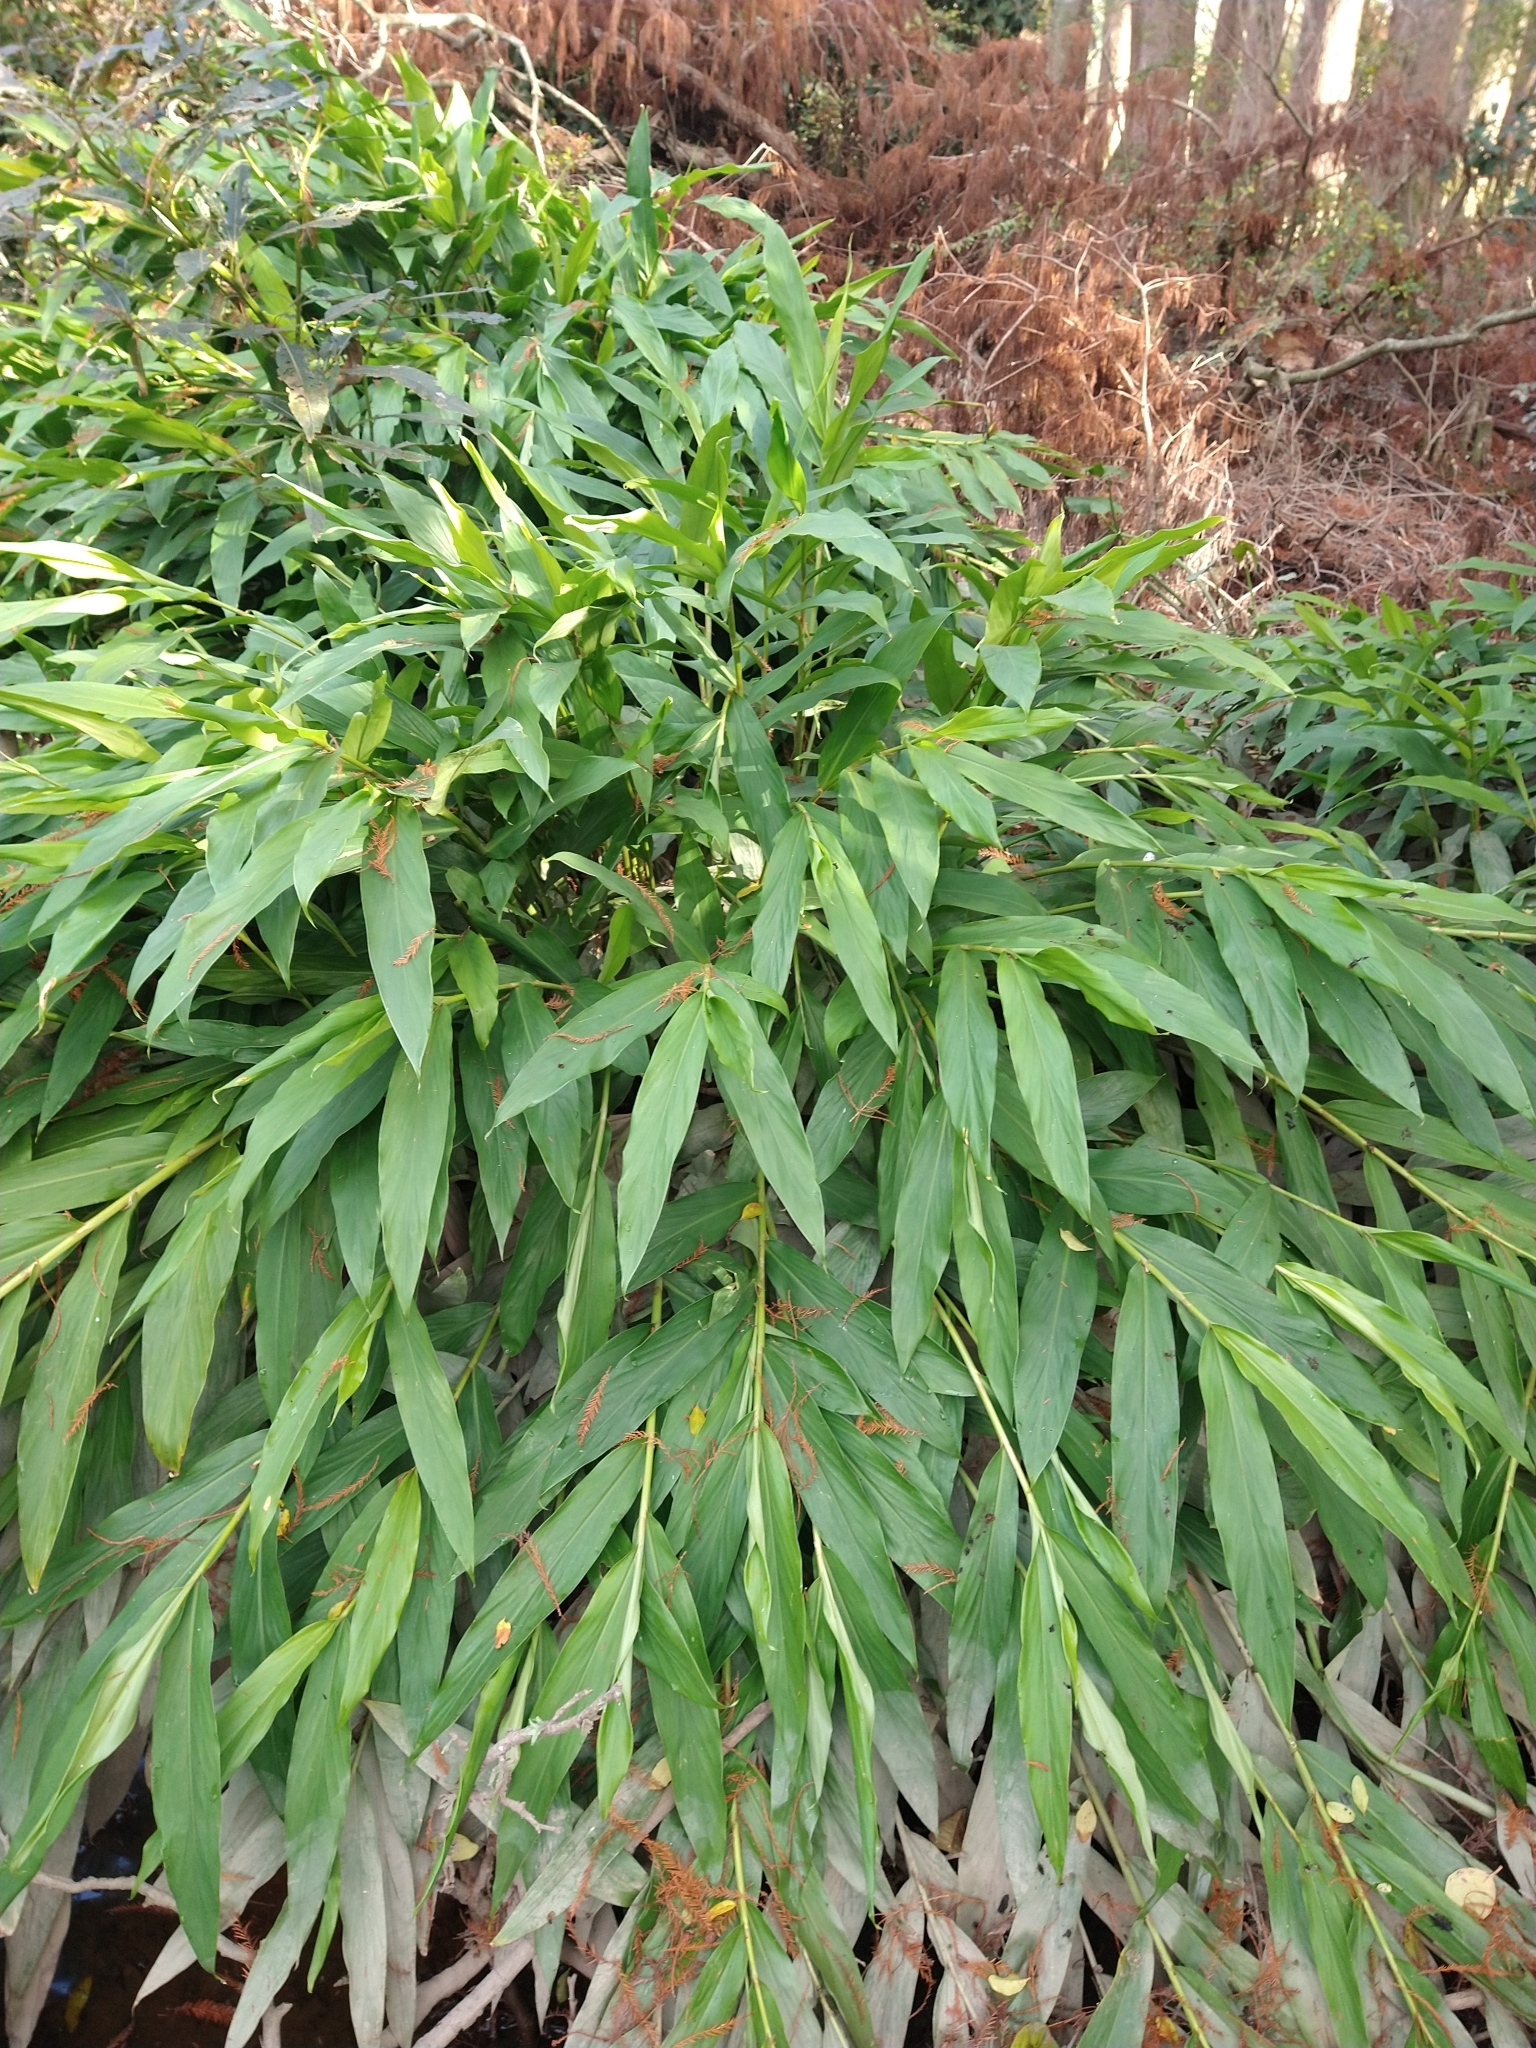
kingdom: Plantae
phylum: Tracheophyta
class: Liliopsida
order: Zingiberales
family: Zingiberaceae
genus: Hedychium
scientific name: Hedychium coronarium
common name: White garland-lily
